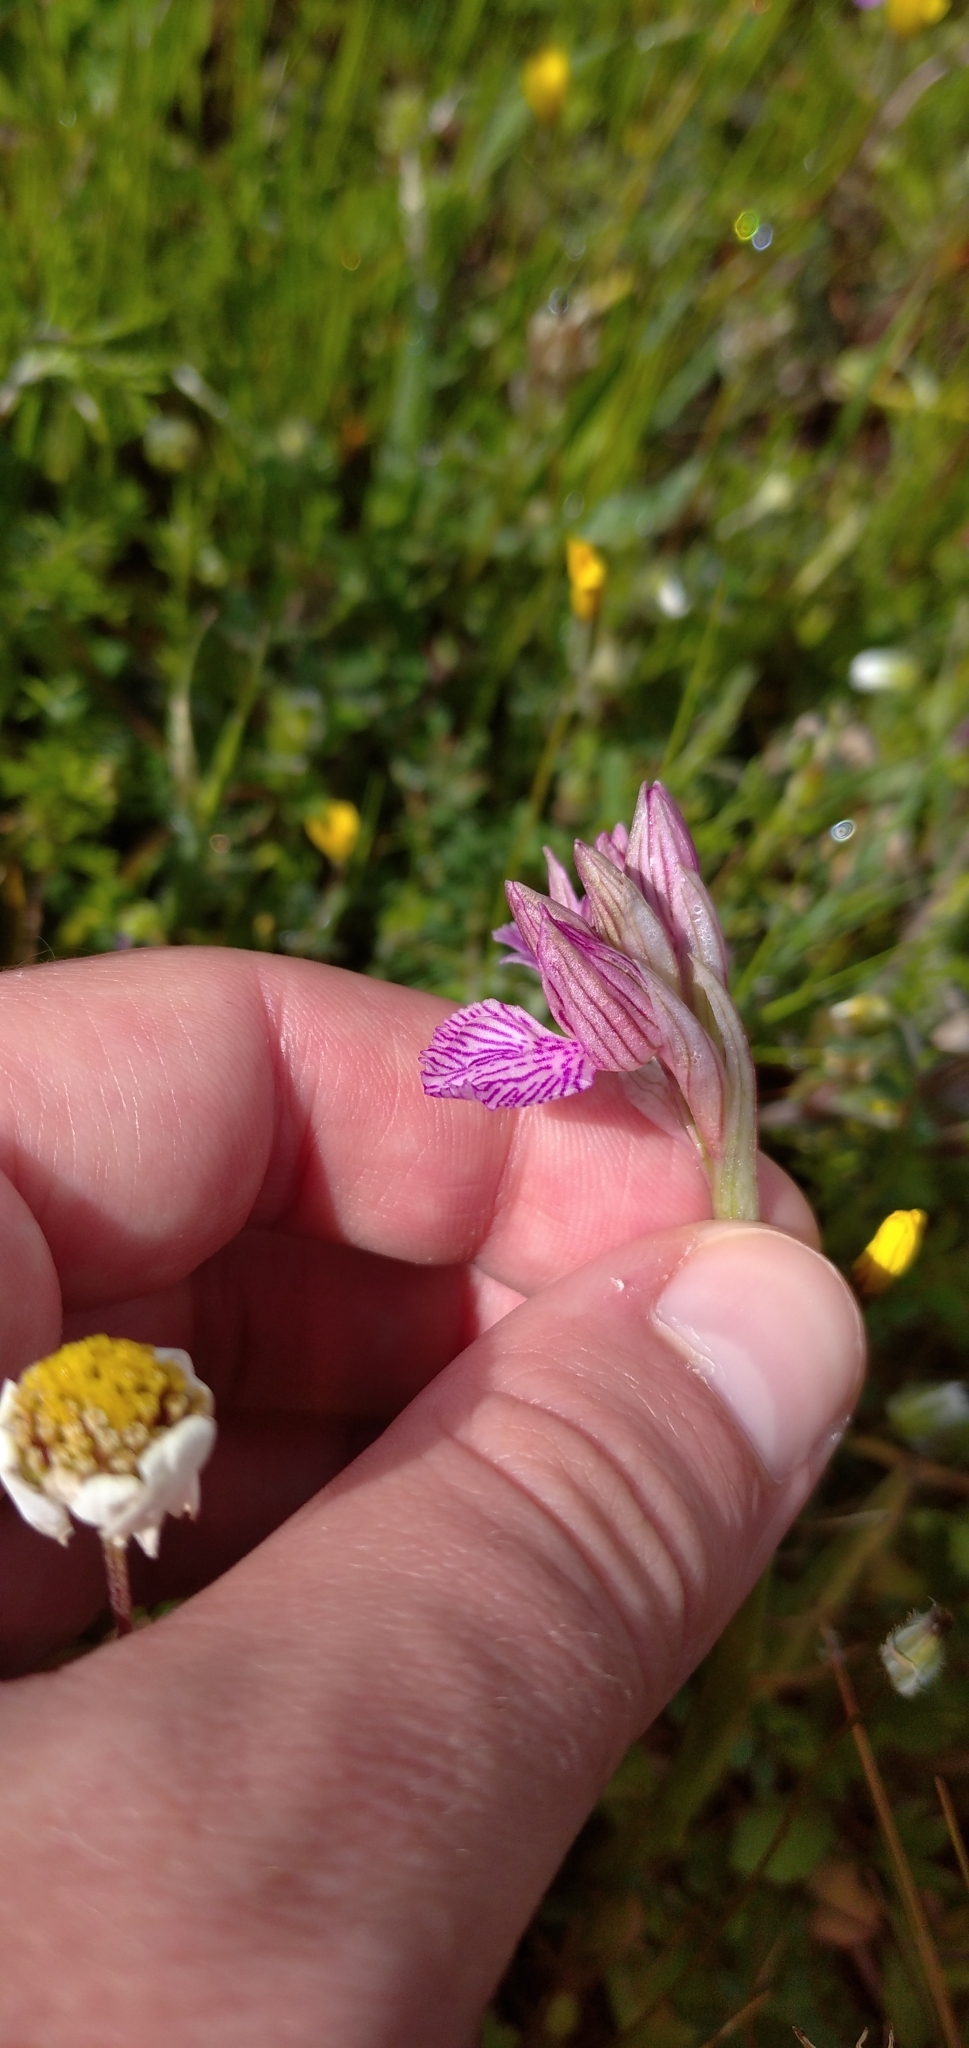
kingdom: Plantae
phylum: Tracheophyta
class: Liliopsida
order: Asparagales
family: Orchidaceae
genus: Anacamptis
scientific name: Anacamptis papilionacea
